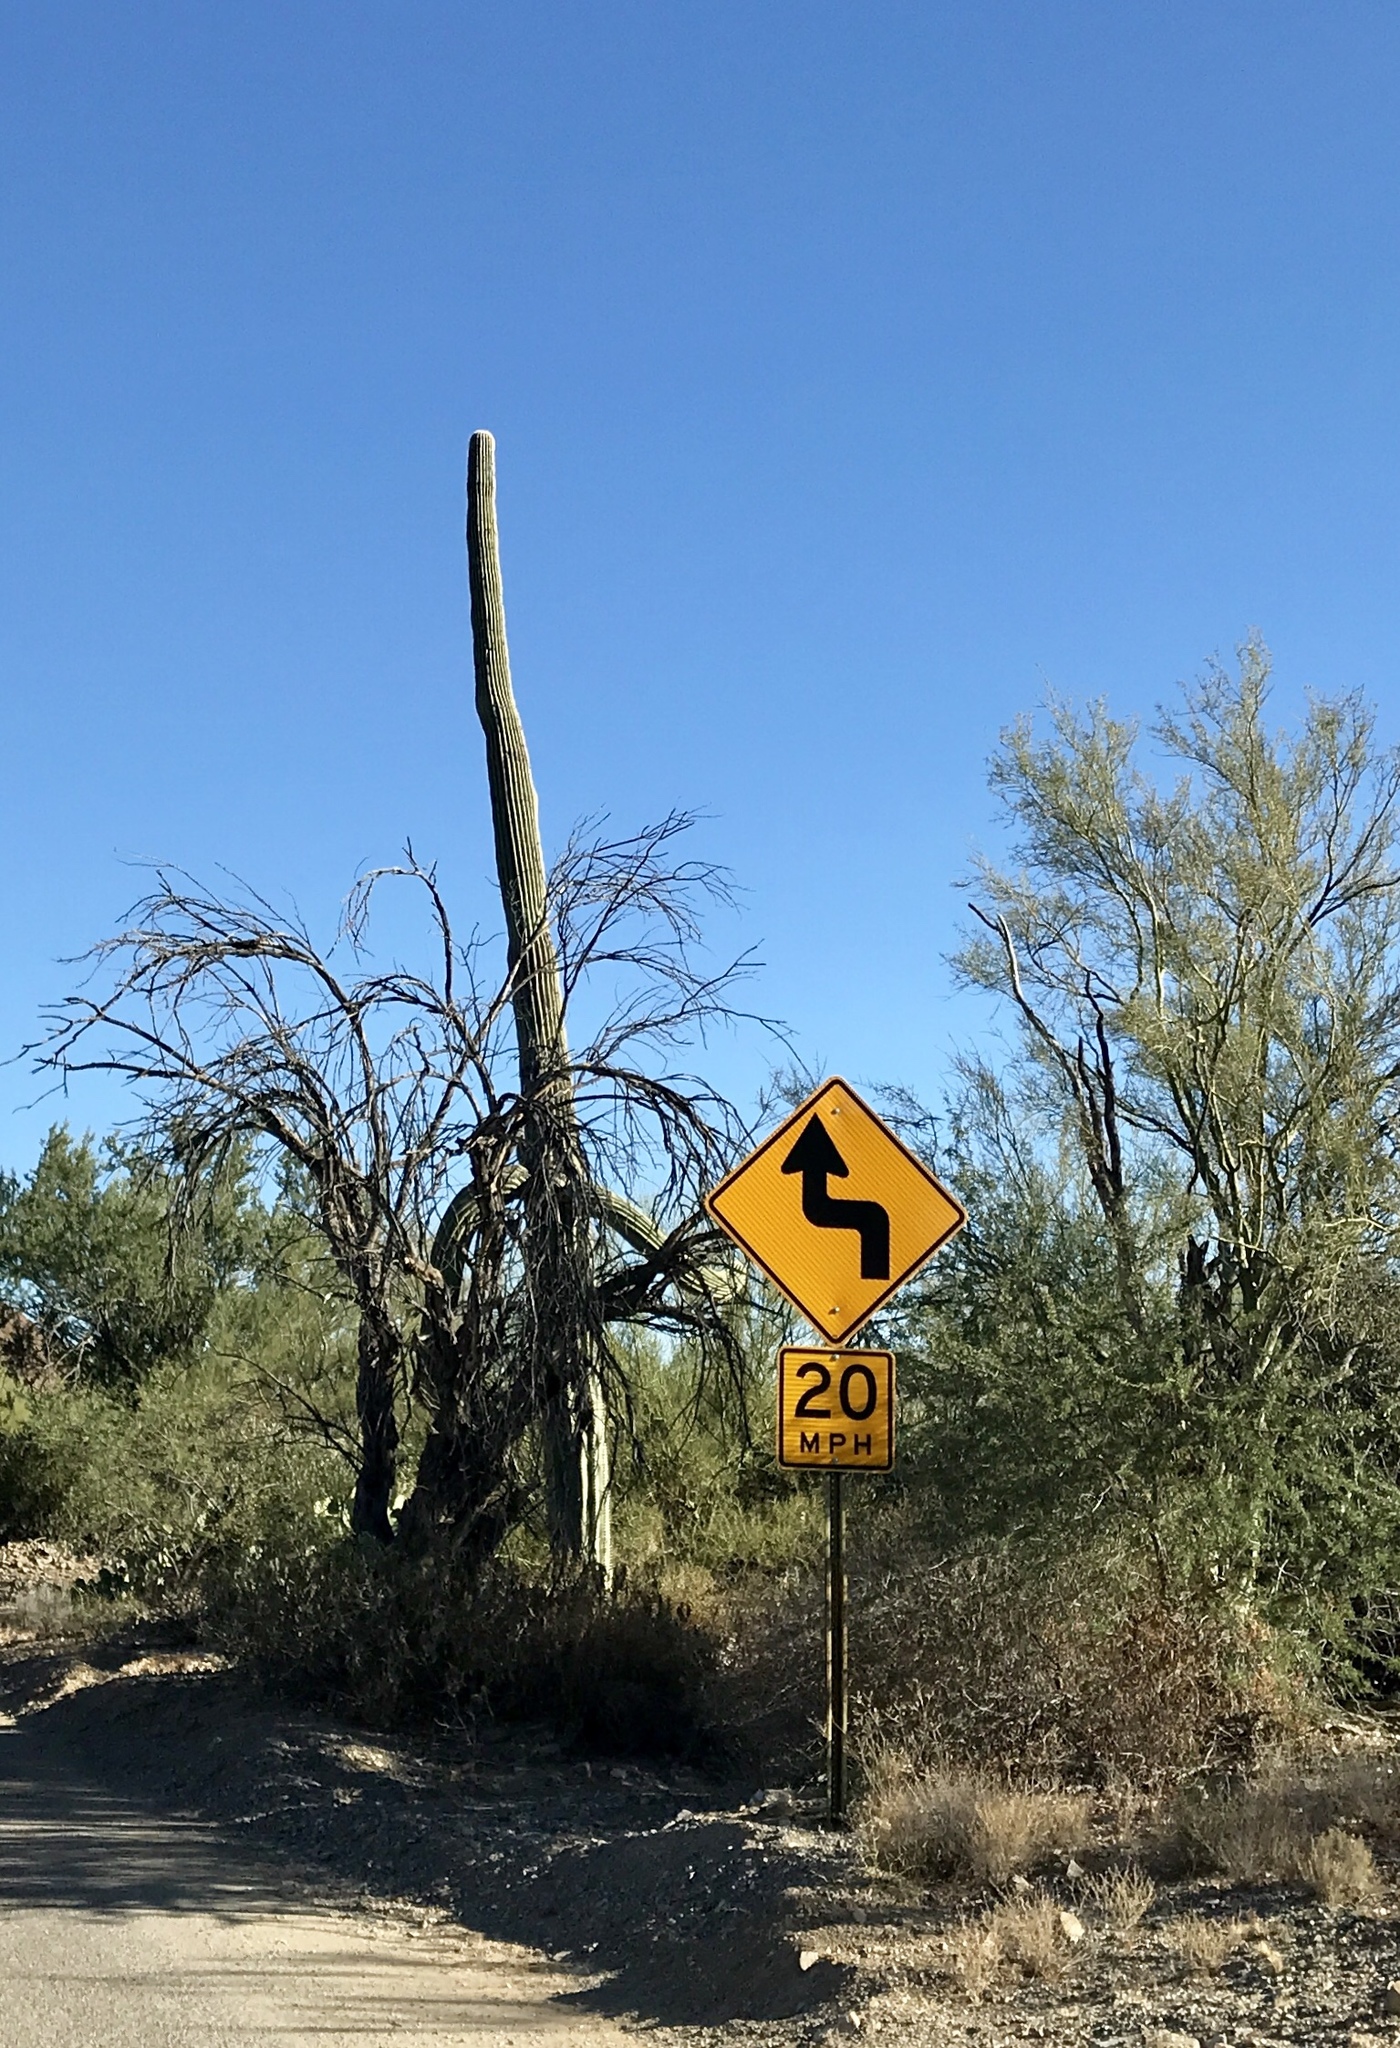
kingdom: Plantae
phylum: Tracheophyta
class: Magnoliopsida
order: Caryophyllales
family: Cactaceae
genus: Carnegiea
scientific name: Carnegiea gigantea
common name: Saguaro
